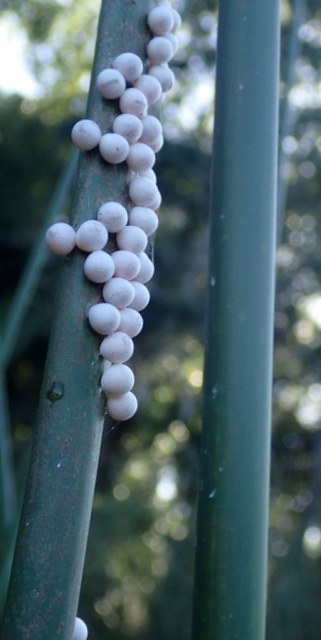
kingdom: Animalia
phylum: Mollusca
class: Gastropoda
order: Architaenioglossa
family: Ampullariidae
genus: Pomacea
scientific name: Pomacea paludosa
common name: Florida applesnail
